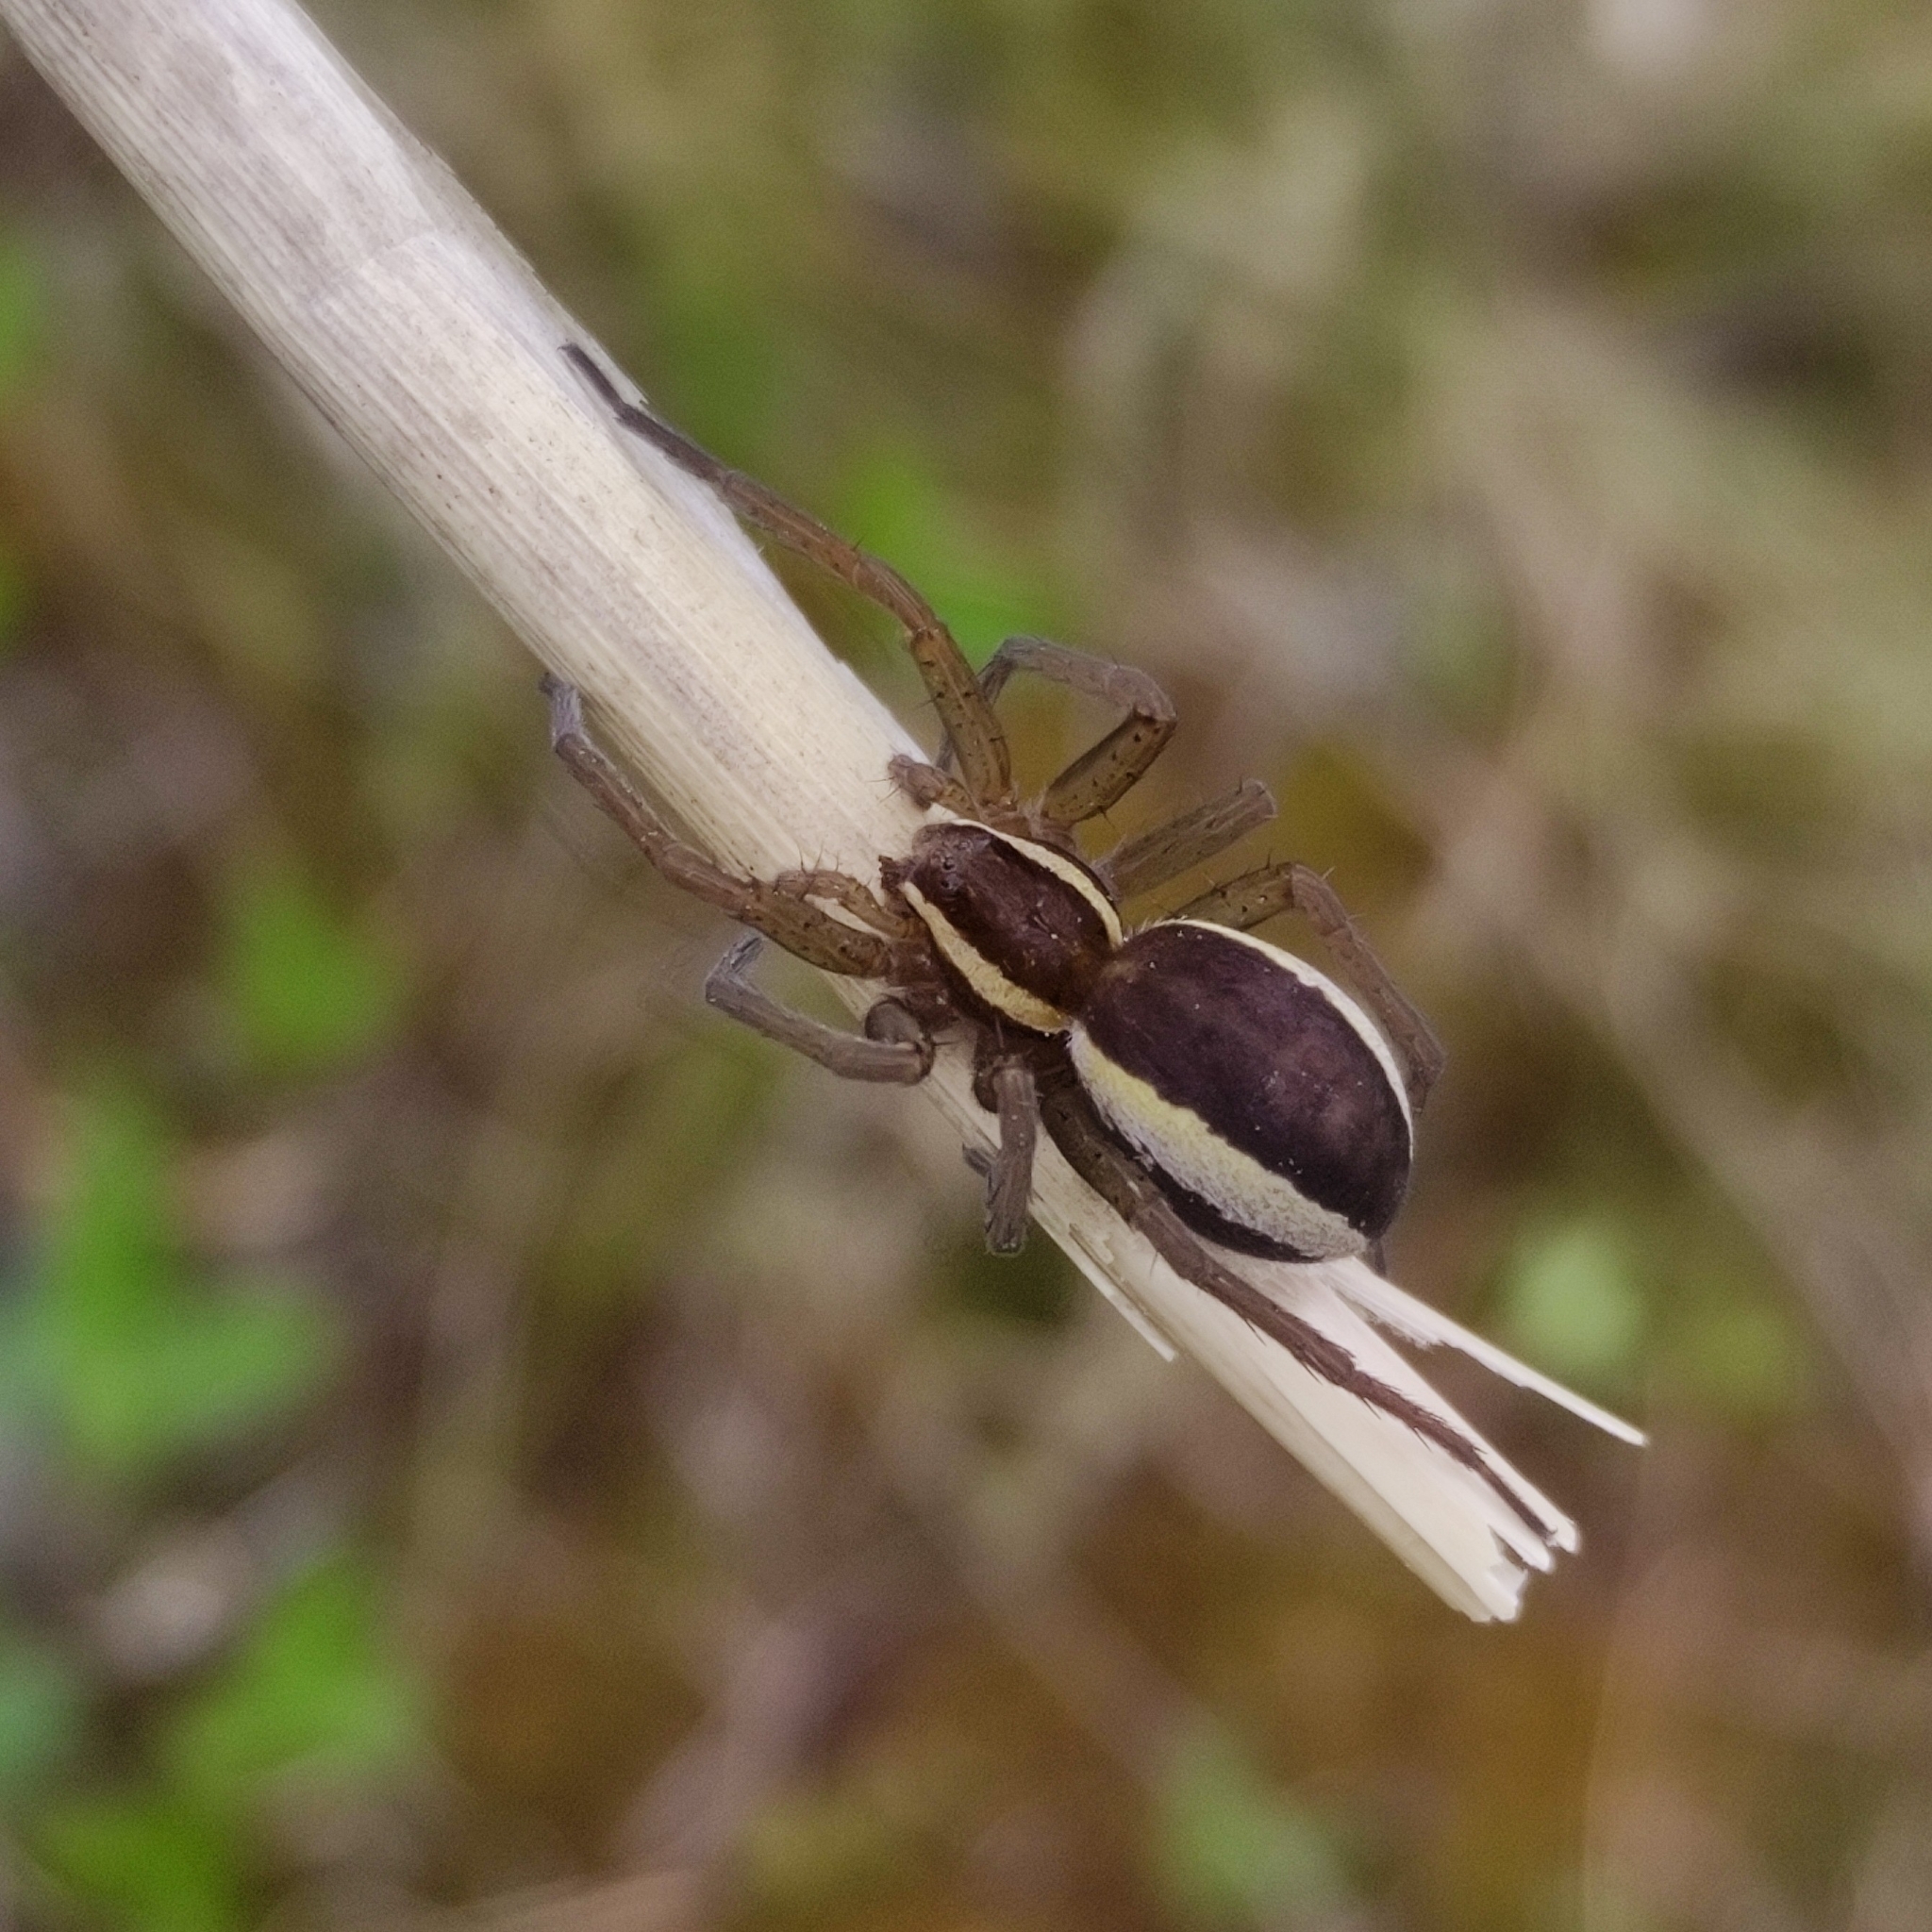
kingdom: Animalia
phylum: Arthropoda
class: Arachnida
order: Araneae
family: Pisauridae
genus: Dolomedes
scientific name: Dolomedes
